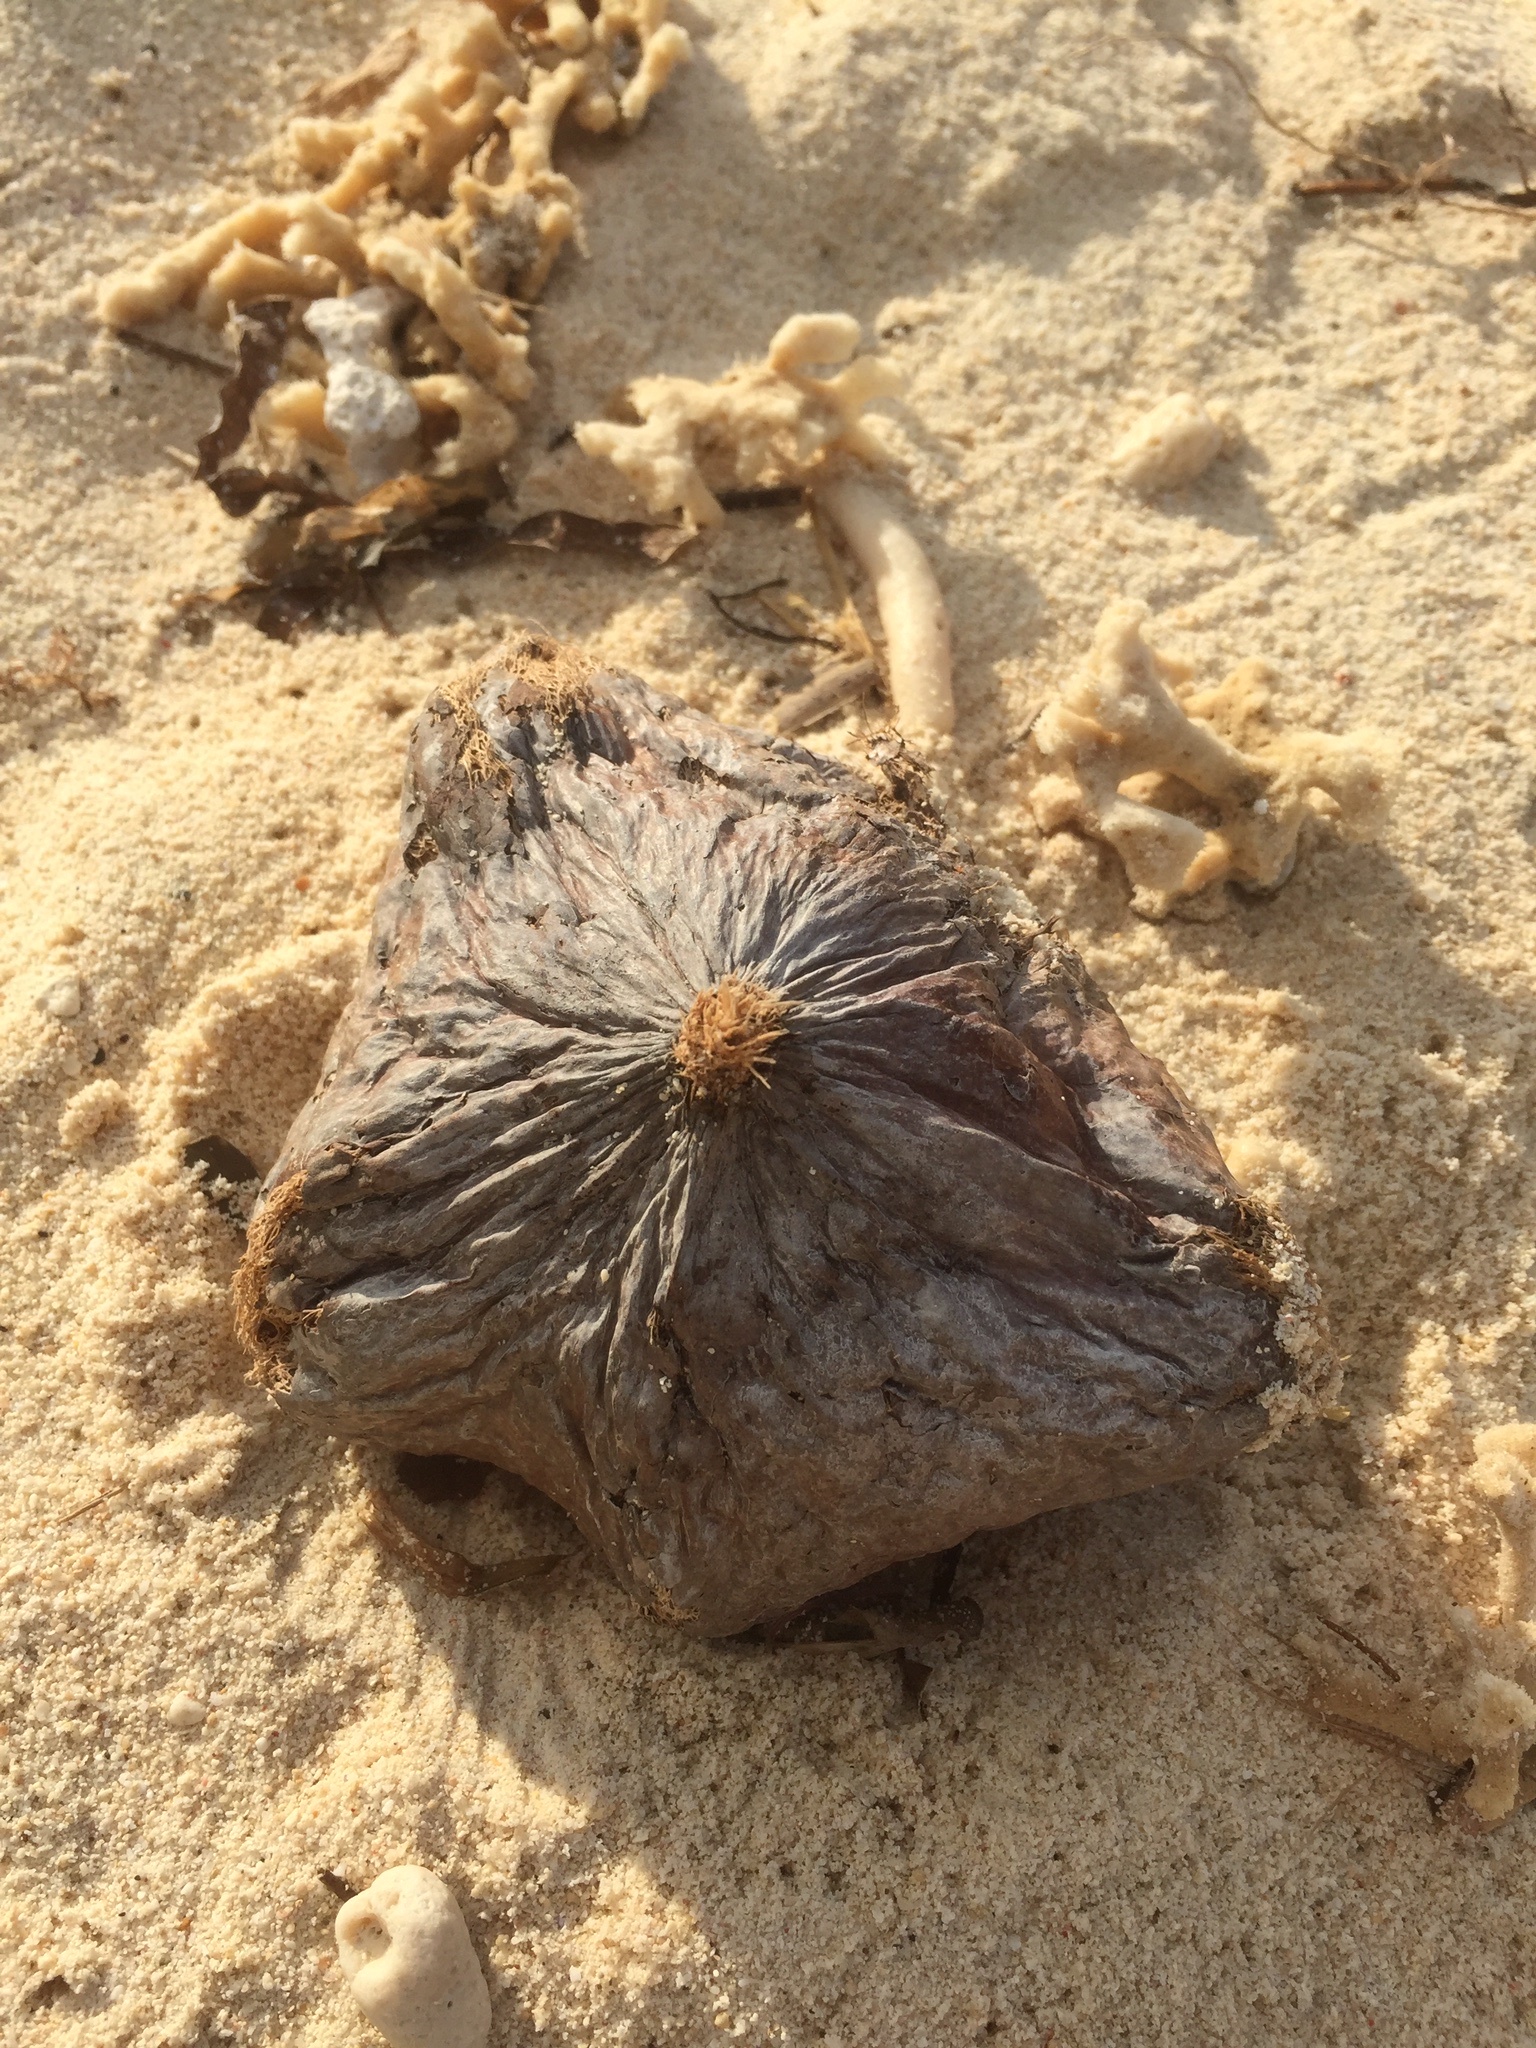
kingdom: Plantae
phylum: Tracheophyta
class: Magnoliopsida
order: Ericales
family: Lecythidaceae
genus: Barringtonia
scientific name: Barringtonia asiatica
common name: Mango-pine
